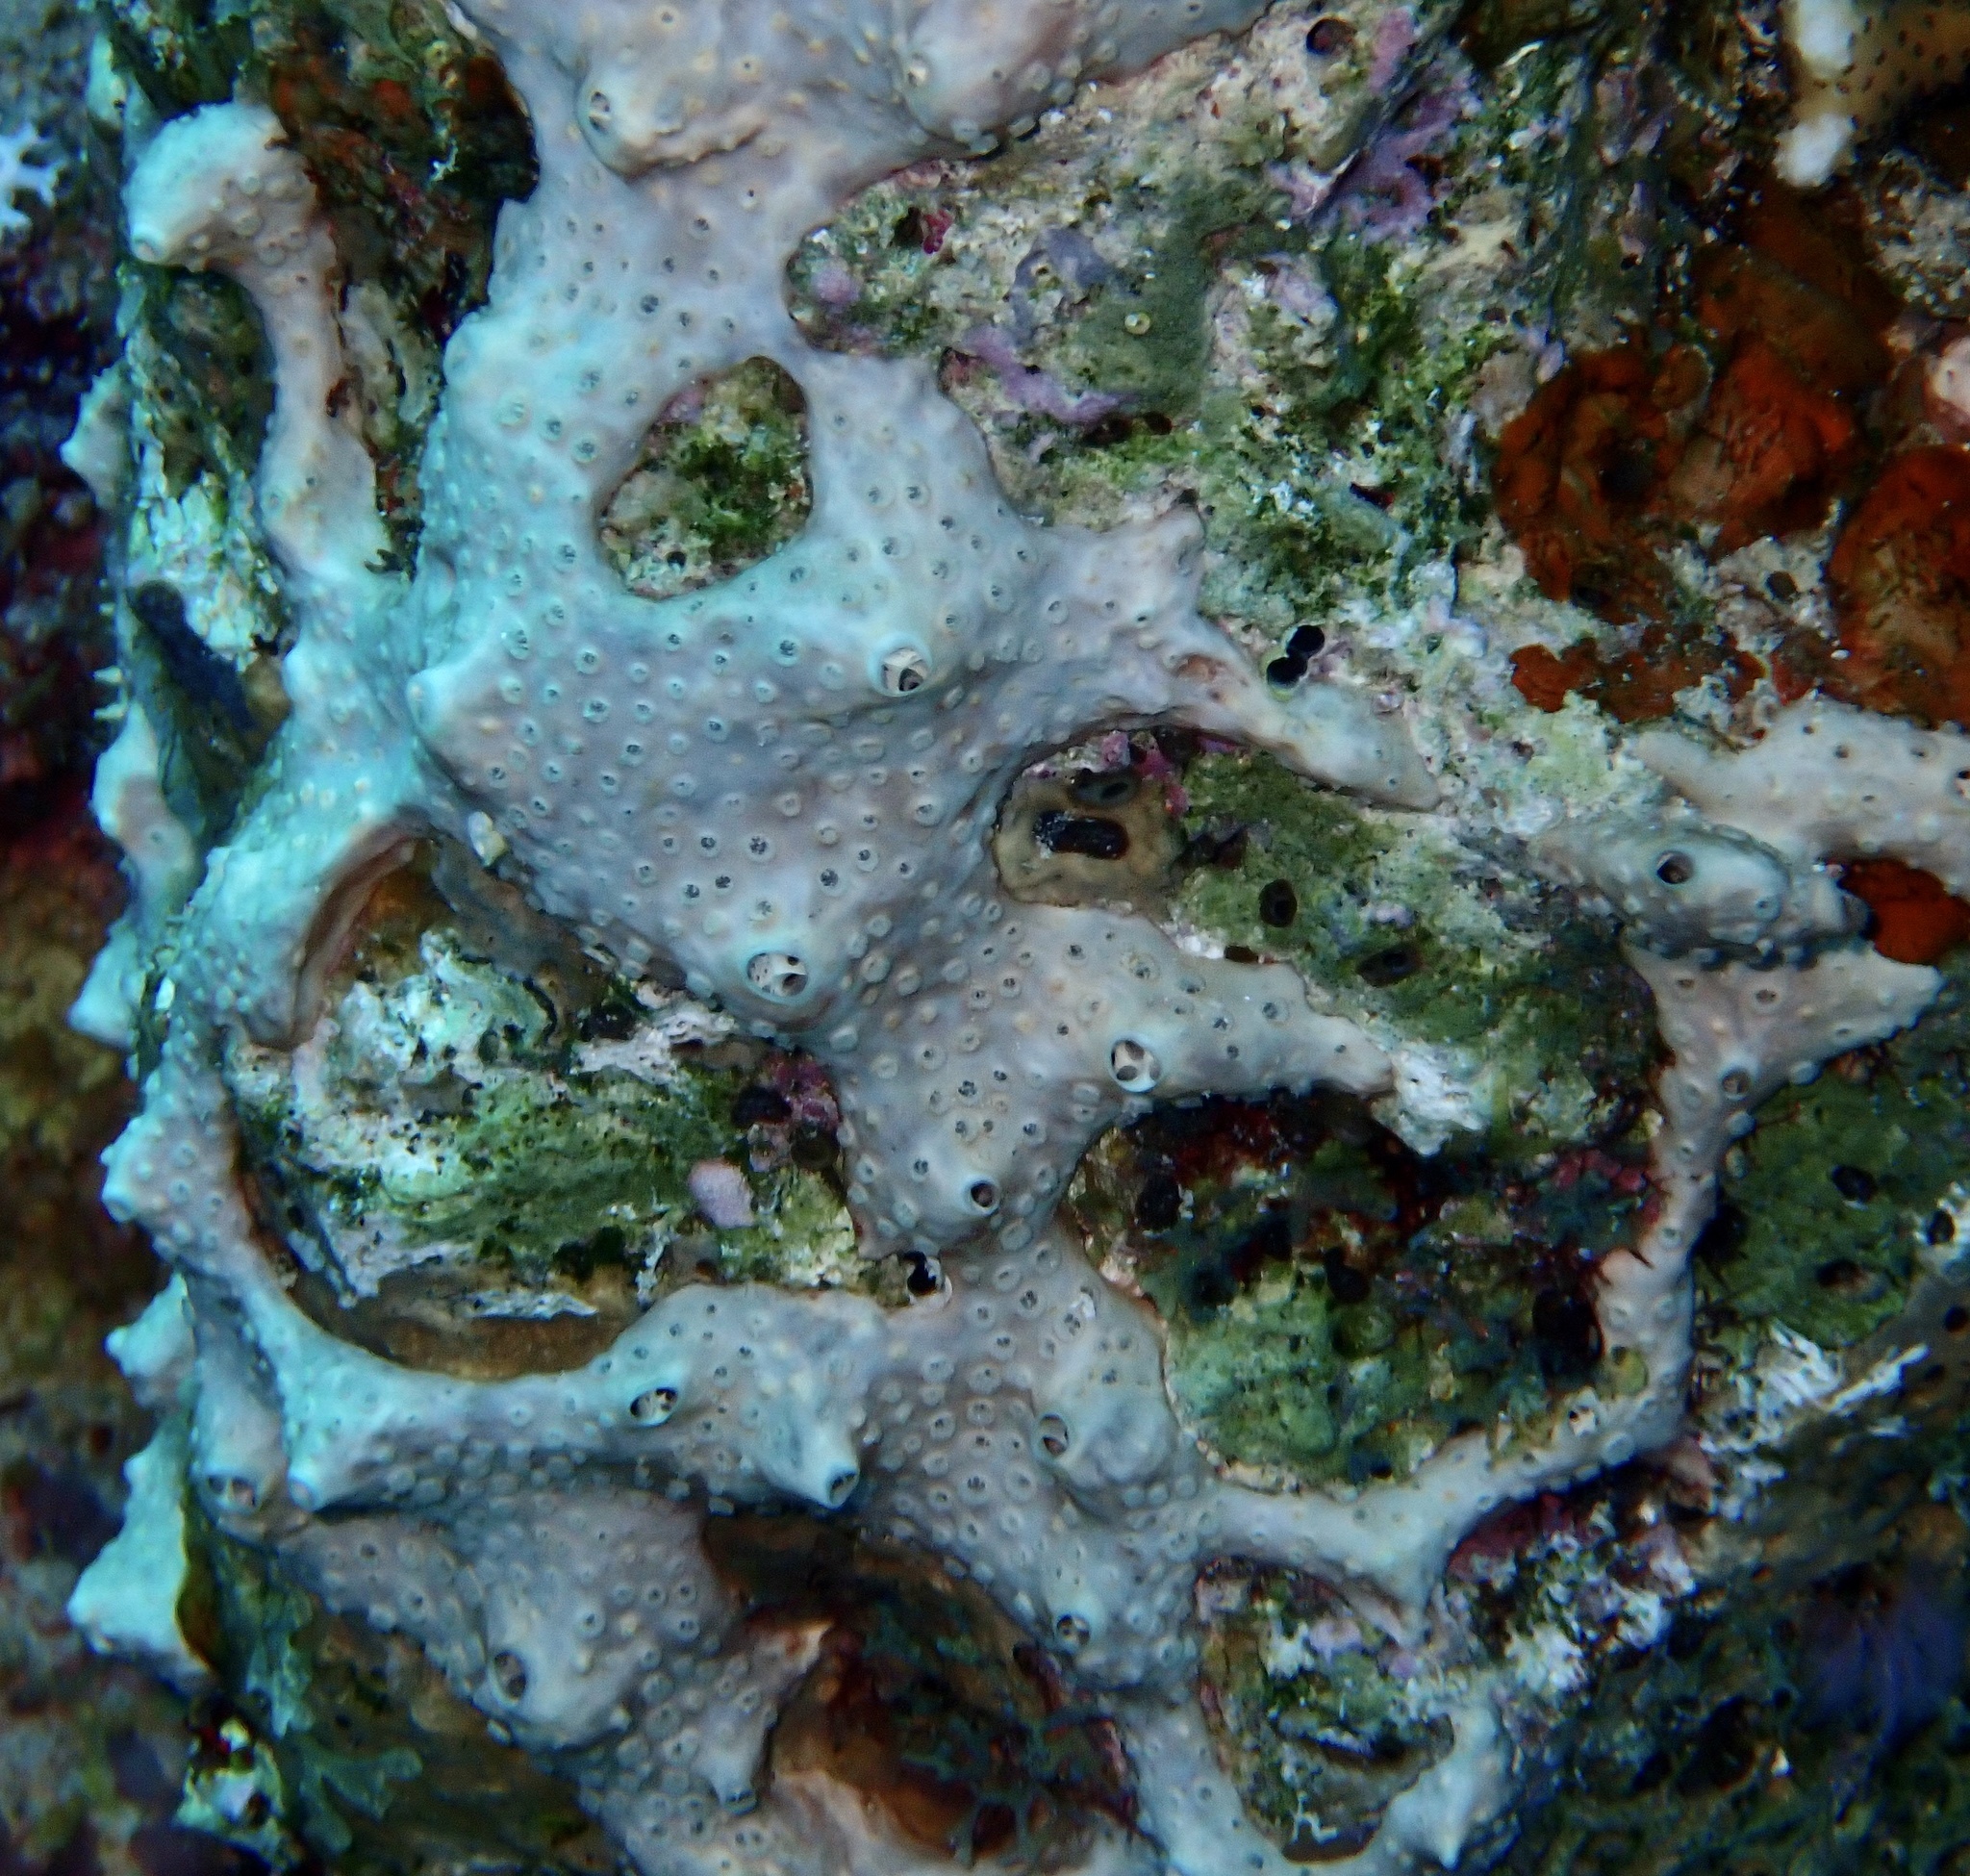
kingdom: Animalia
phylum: Porifera
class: Demospongiae
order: Poecilosclerida
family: Crellidae
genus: Crella
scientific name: Crella cyathophora
